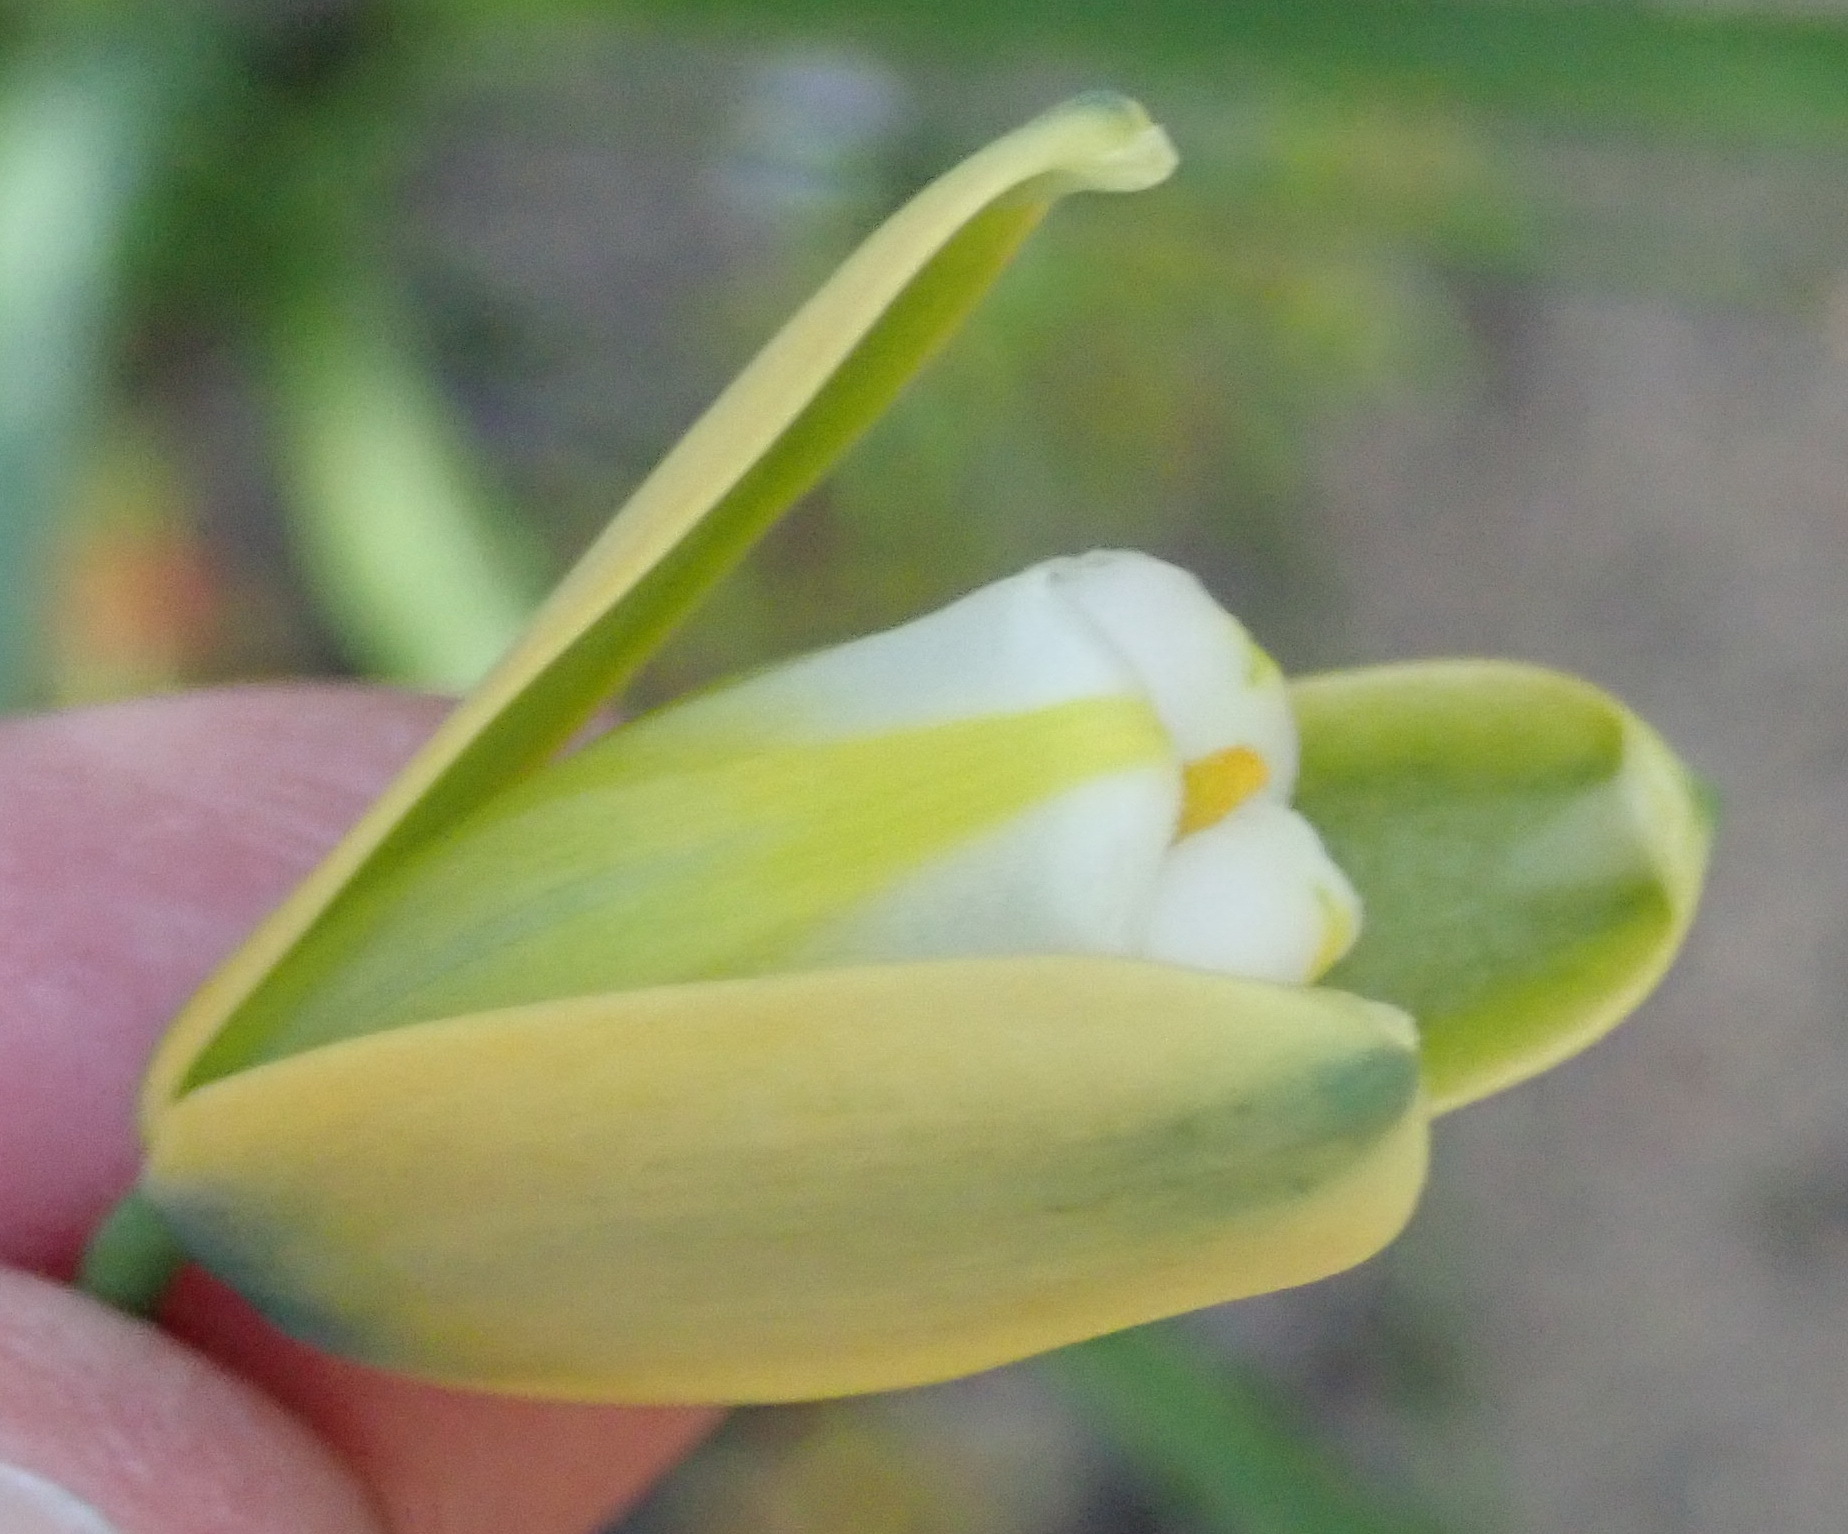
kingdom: Plantae
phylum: Tracheophyta
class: Liliopsida
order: Asparagales
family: Asparagaceae
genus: Albuca
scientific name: Albuca flaccida
